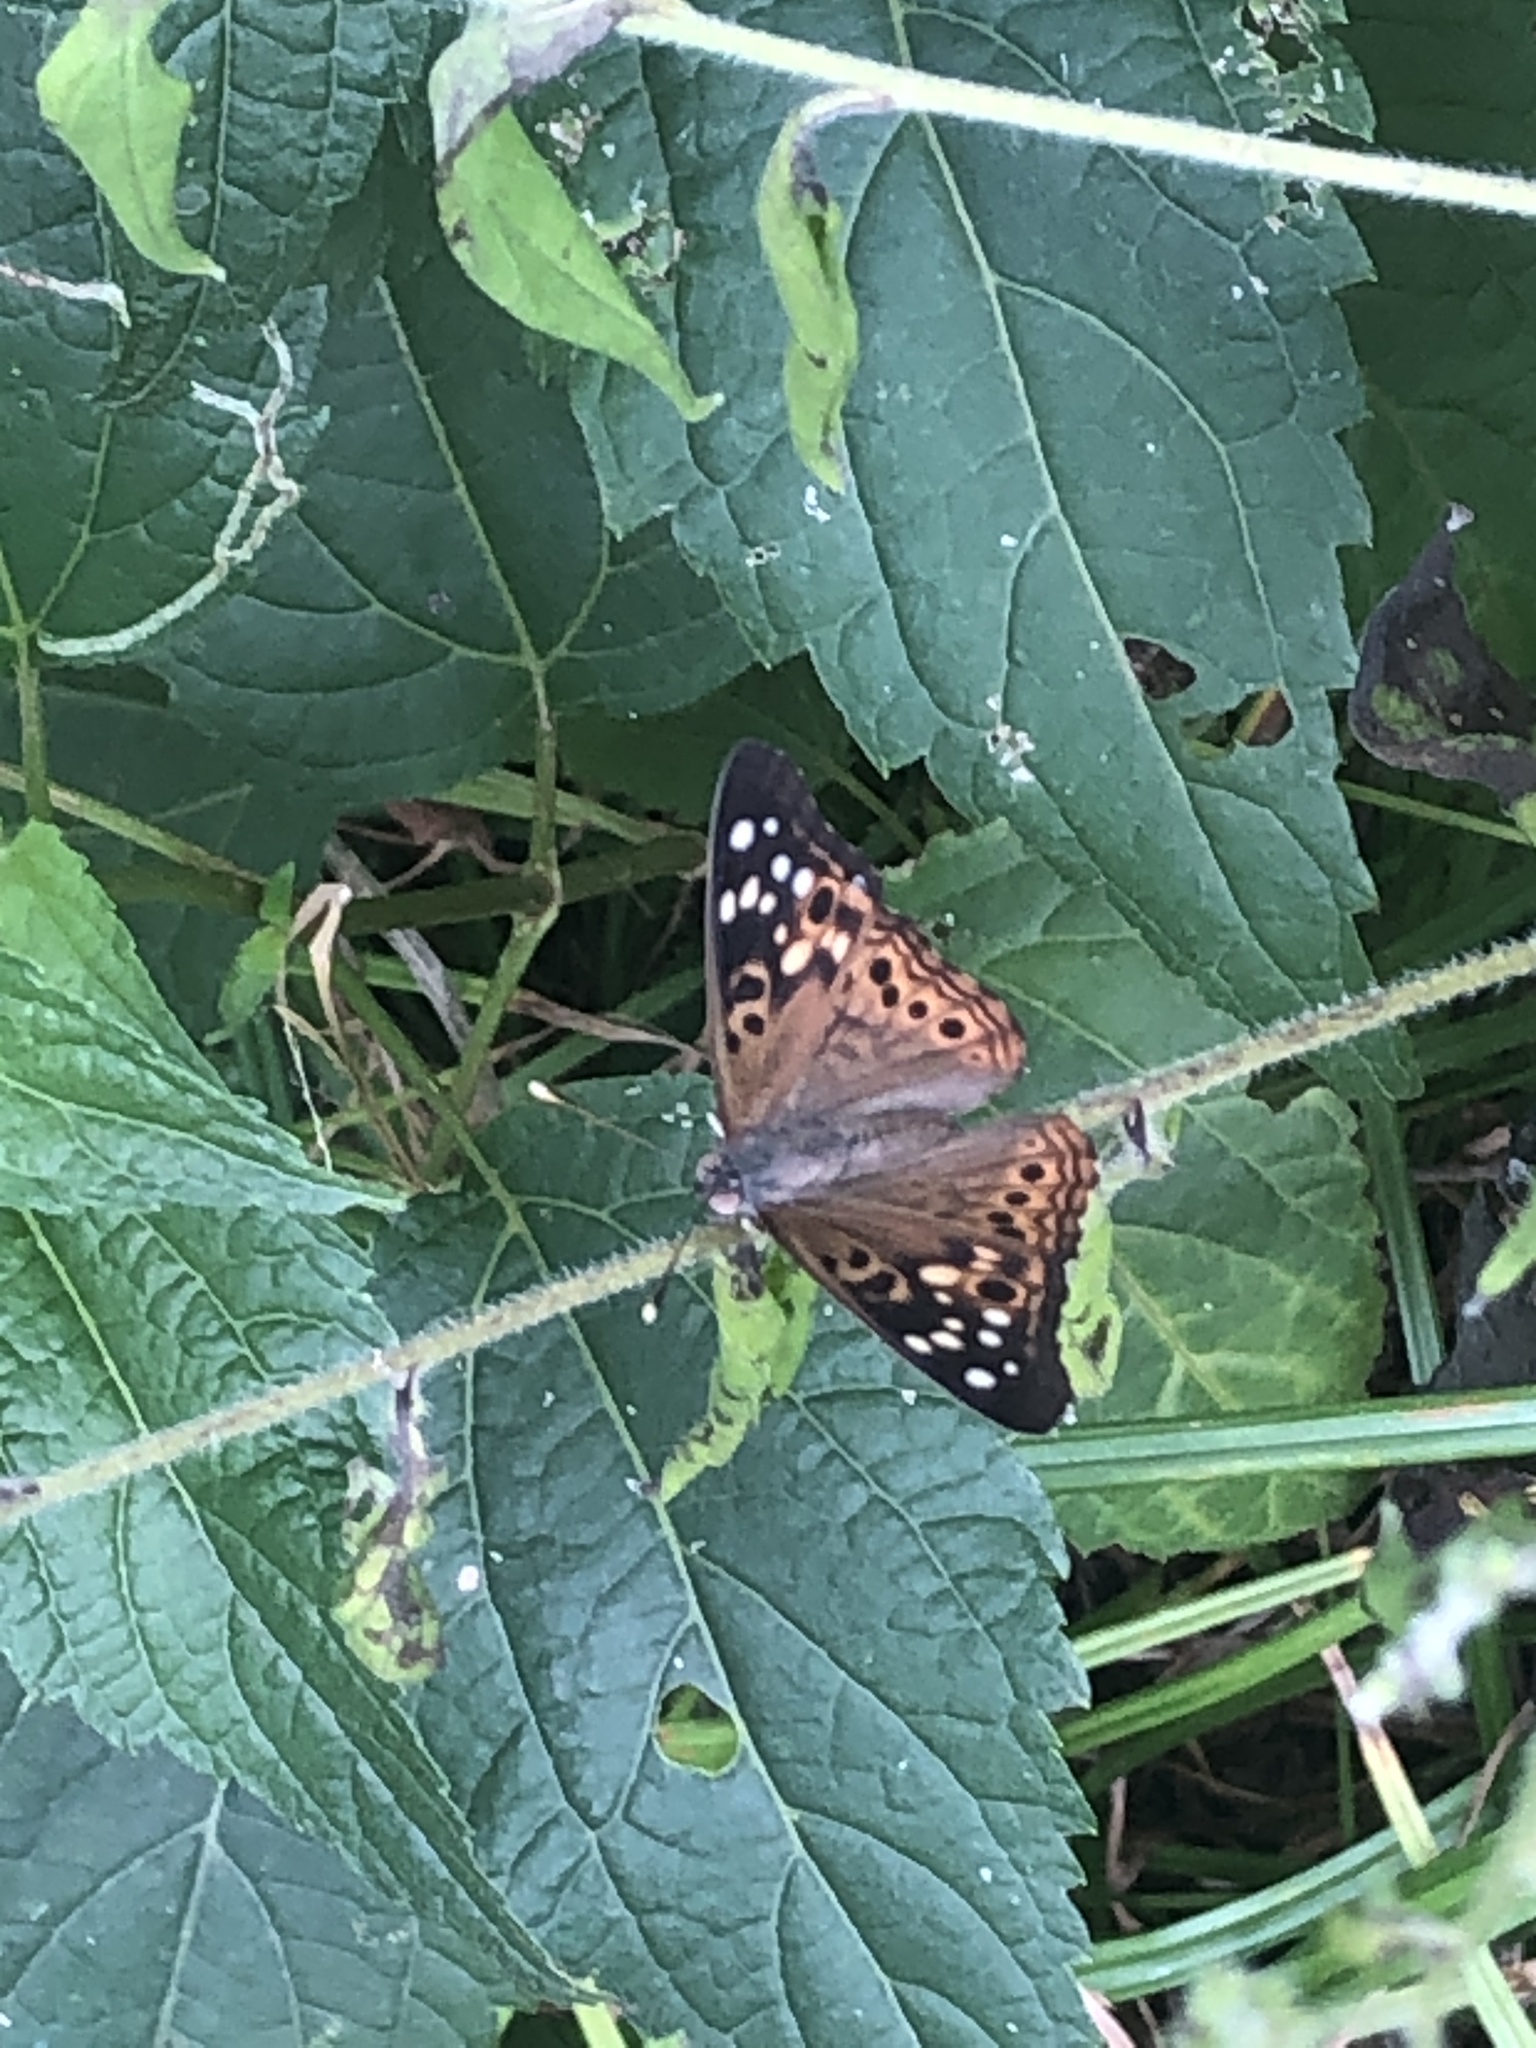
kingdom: Animalia
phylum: Arthropoda
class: Insecta
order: Lepidoptera
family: Nymphalidae
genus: Asterocampa
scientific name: Asterocampa celtis
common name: Hackberry emperor
